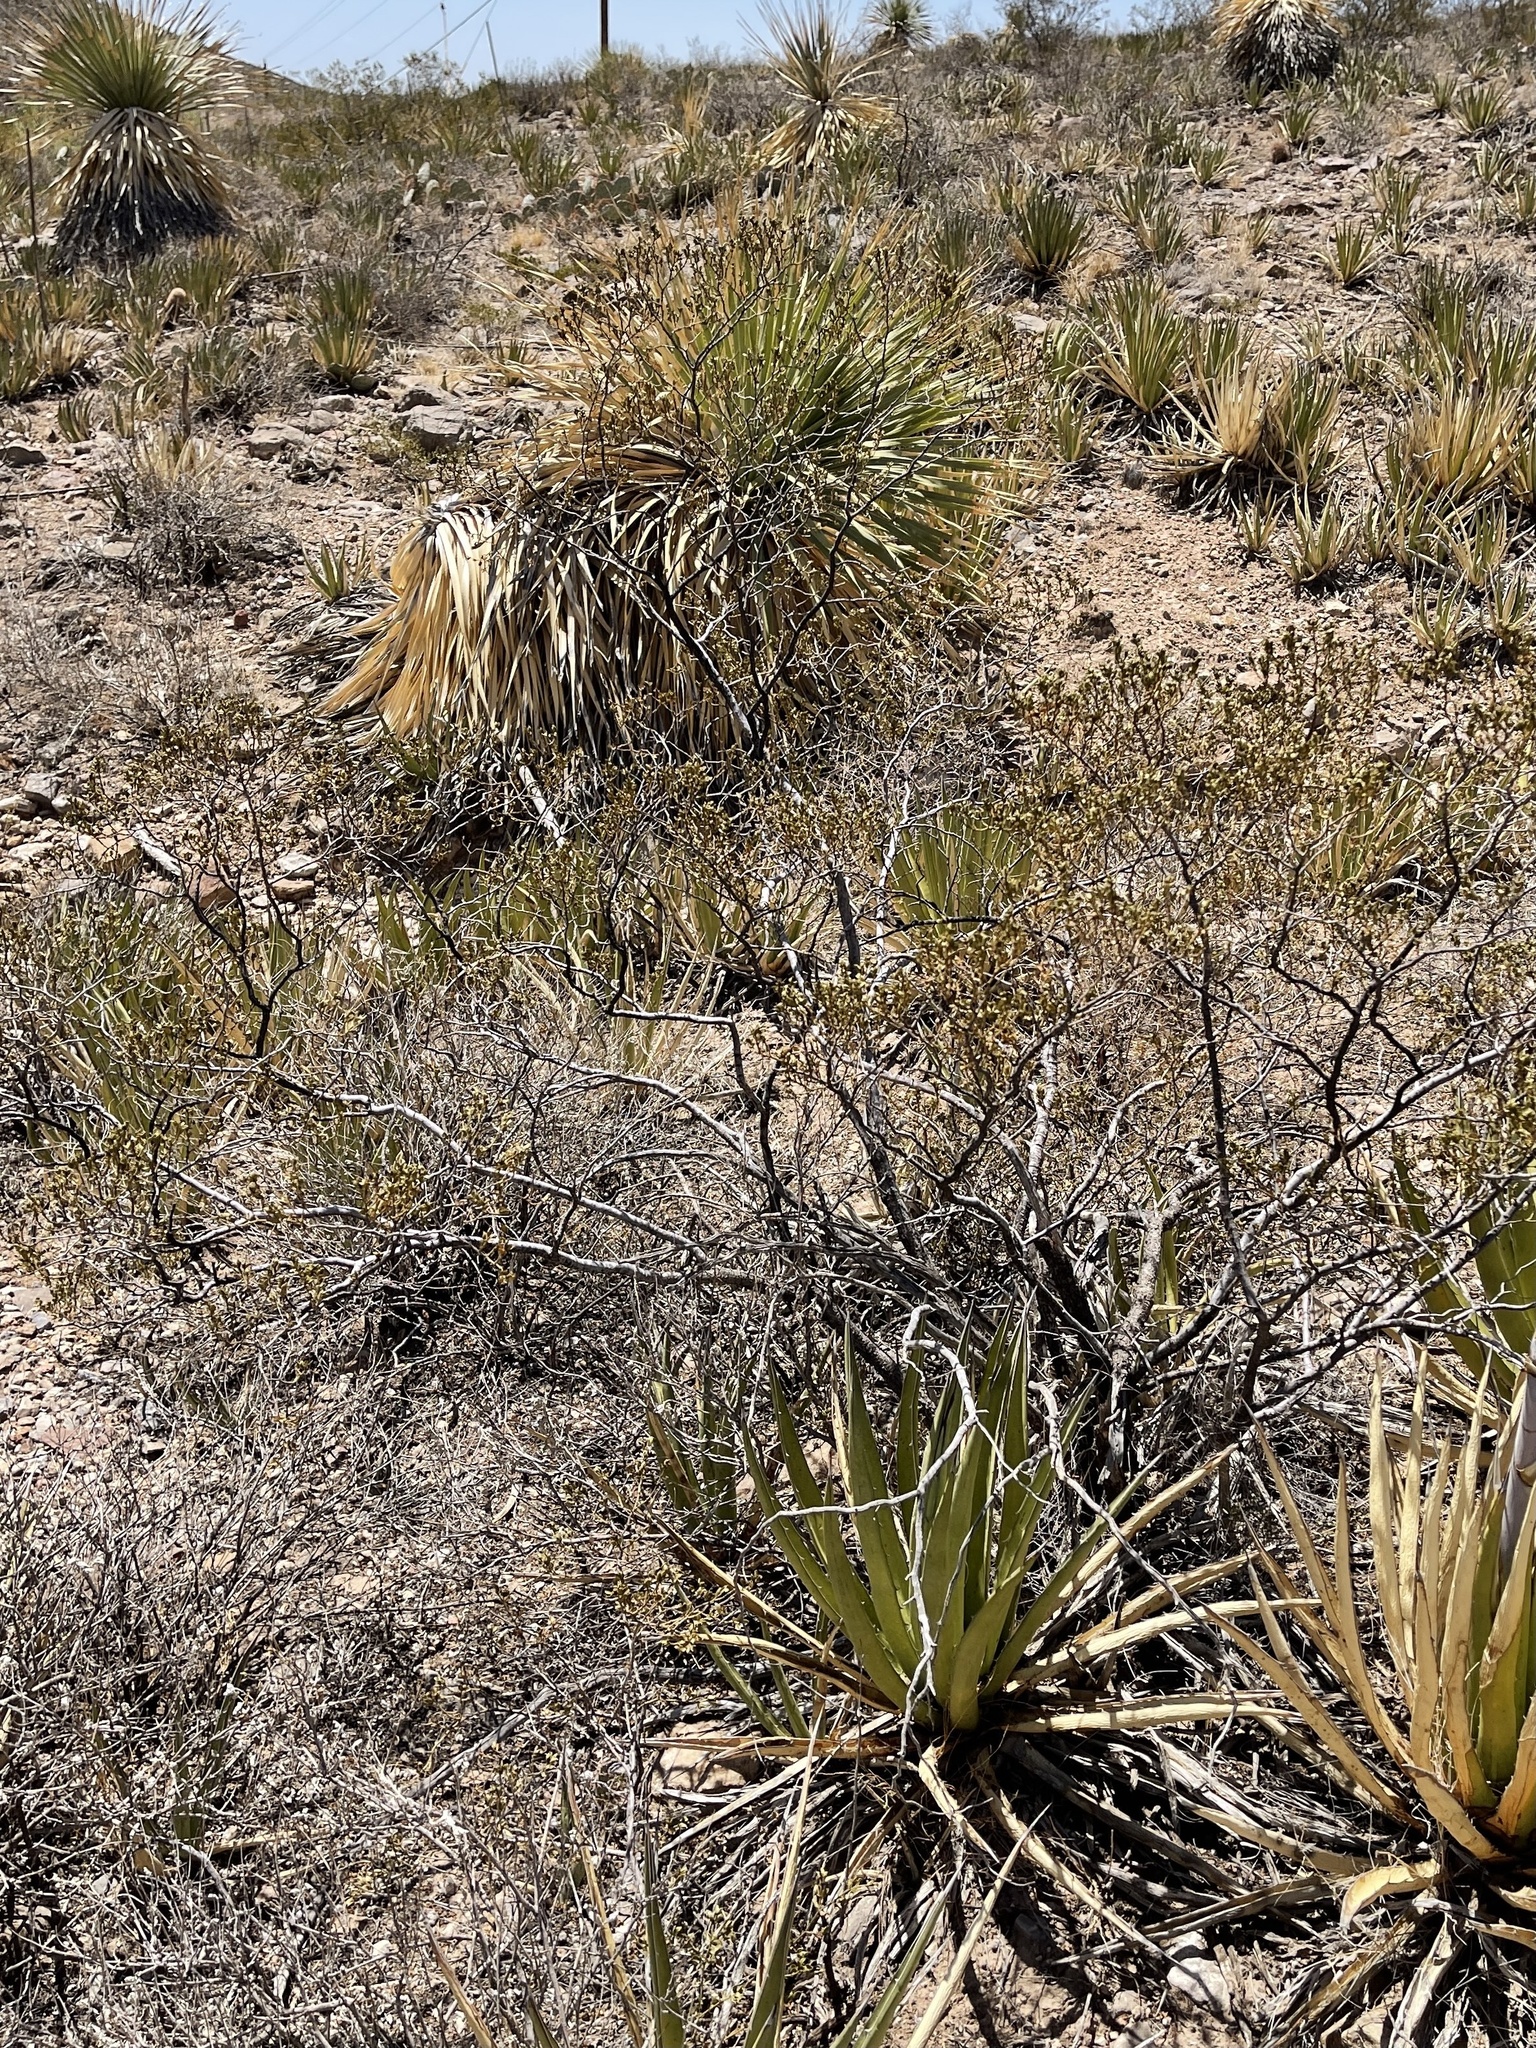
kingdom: Plantae
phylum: Tracheophyta
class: Magnoliopsida
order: Zygophyllales
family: Zygophyllaceae
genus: Larrea
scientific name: Larrea tridentata
